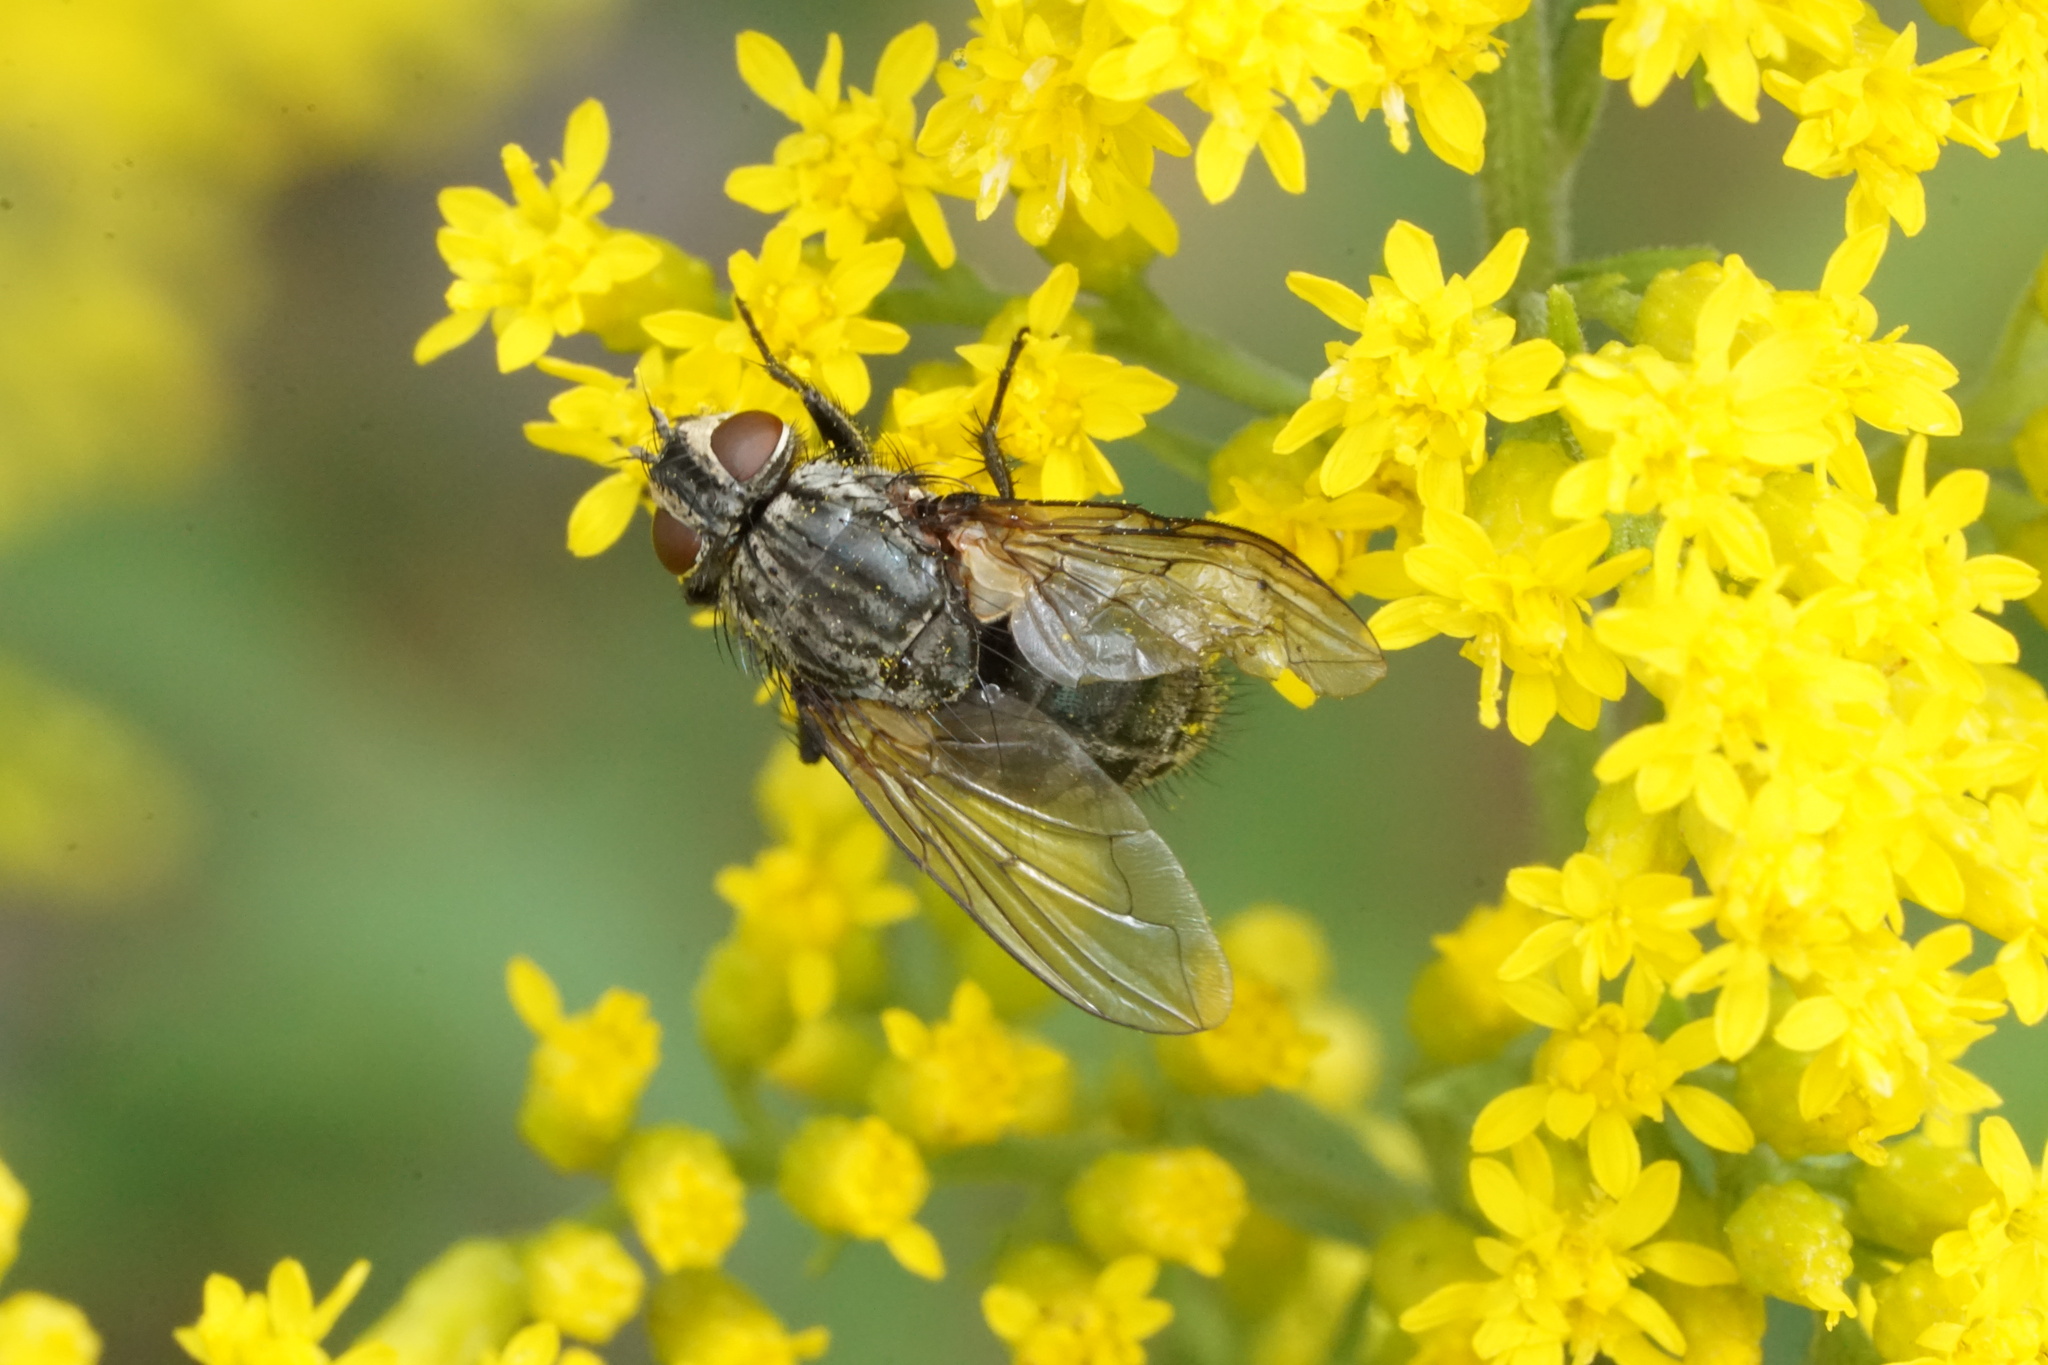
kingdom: Animalia
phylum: Arthropoda
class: Insecta
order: Diptera
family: Calliphoridae
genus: Bellardia
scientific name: Bellardia vulgaris
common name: Pale-veined emerald-bottle fly
